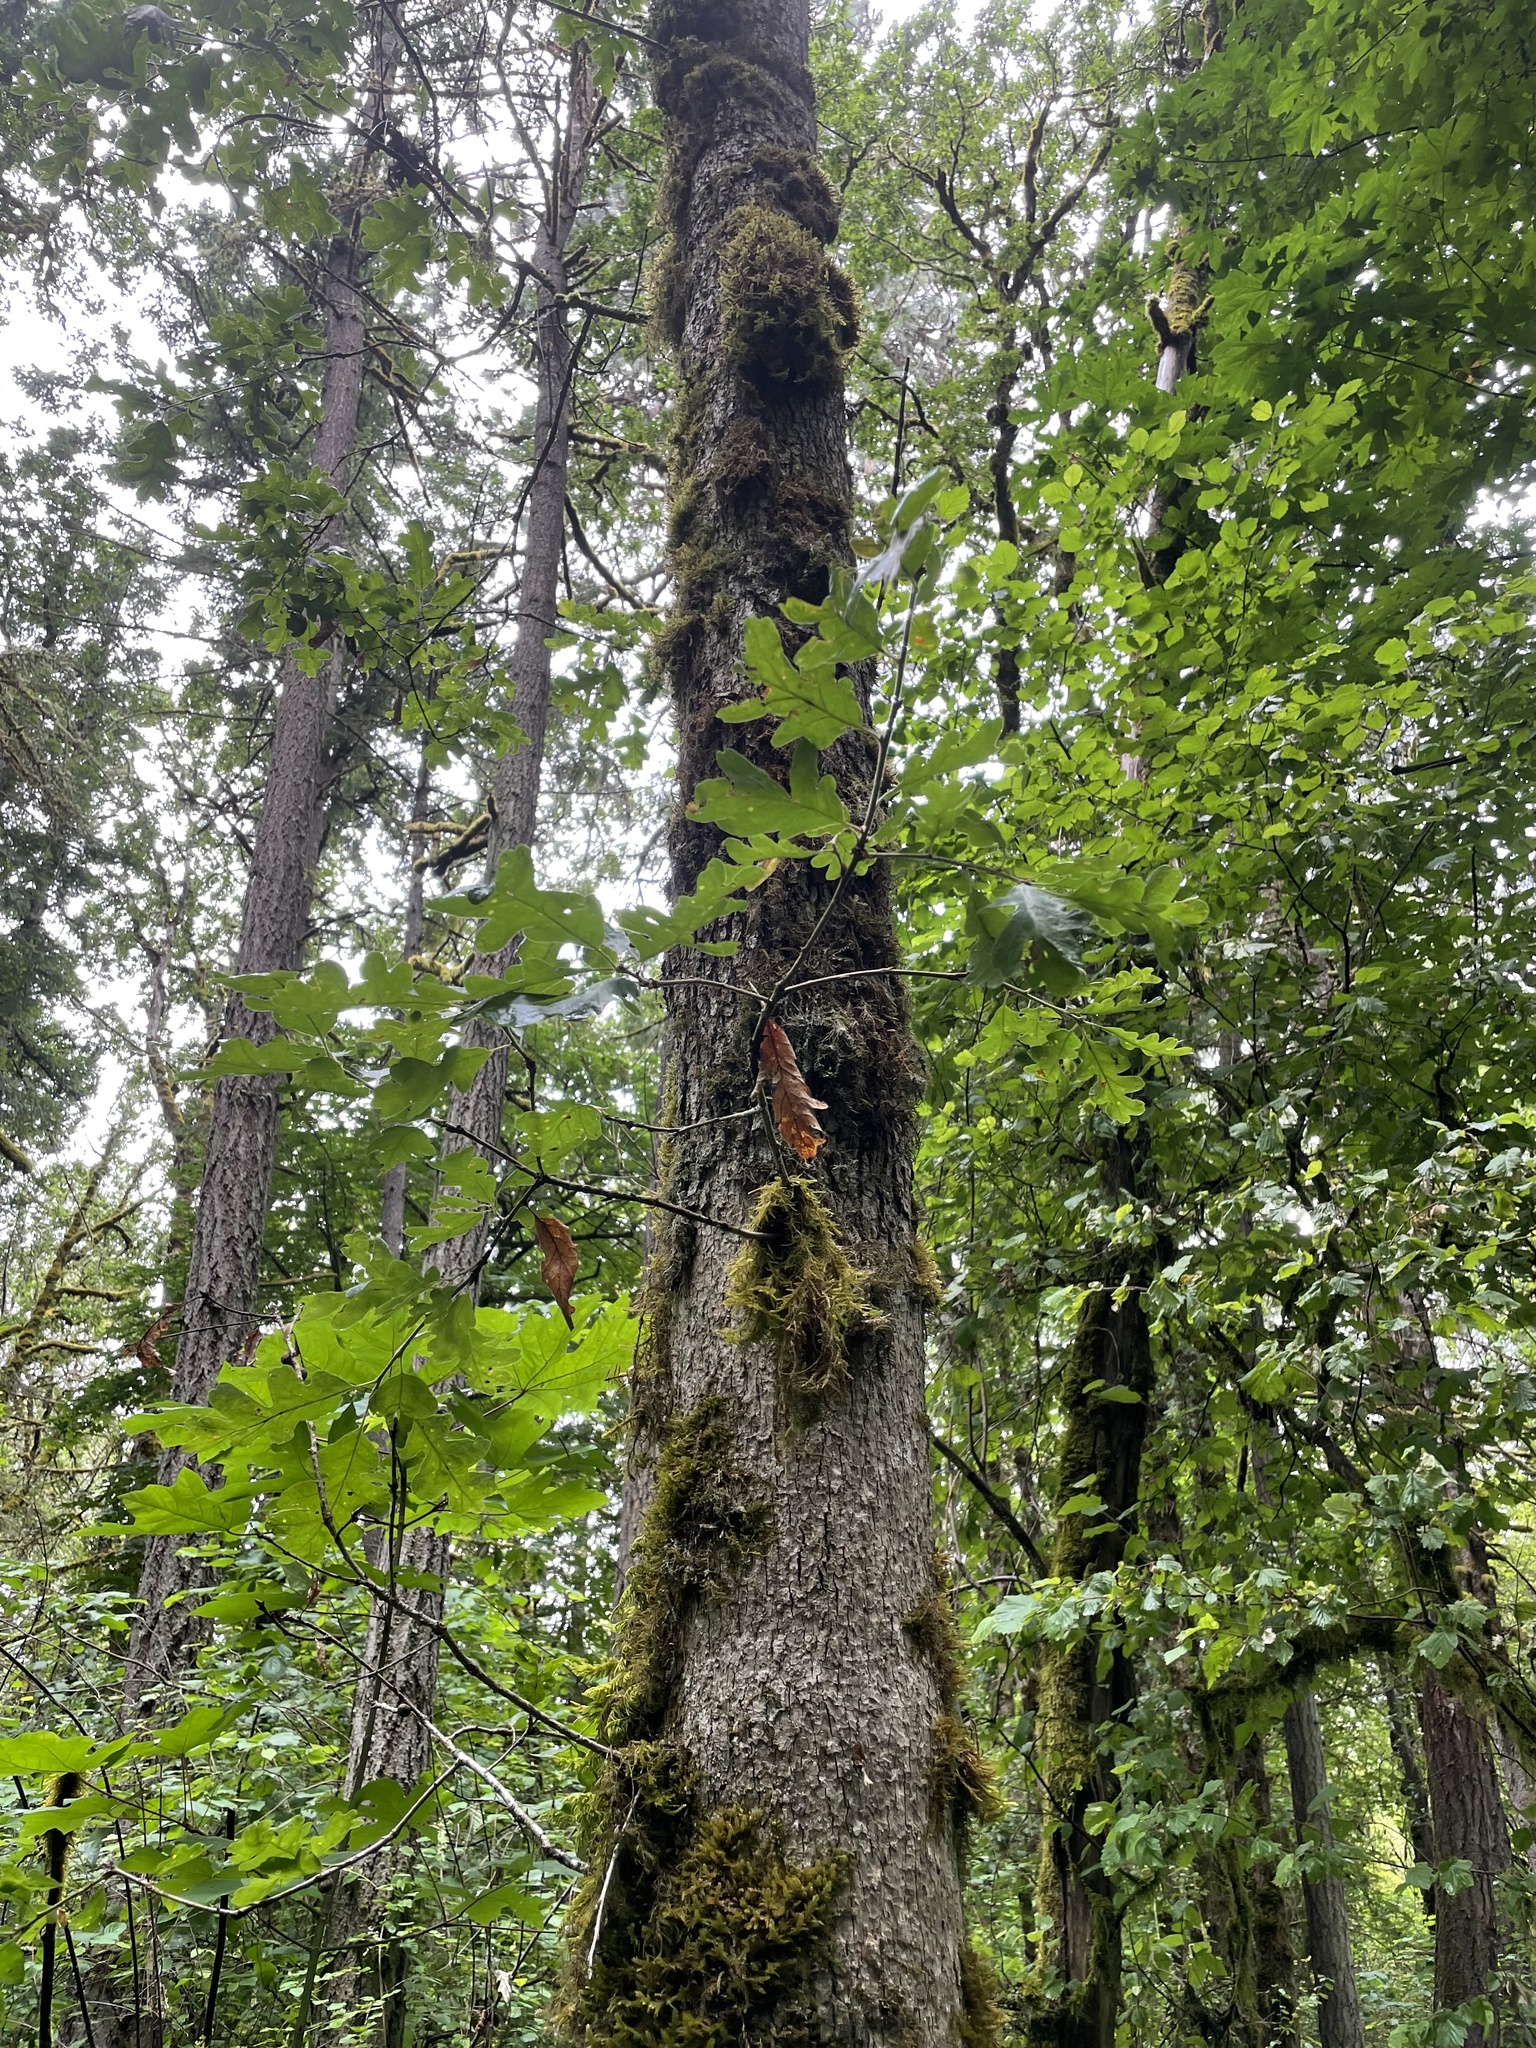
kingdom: Plantae
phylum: Tracheophyta
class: Magnoliopsida
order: Fagales
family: Fagaceae
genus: Quercus
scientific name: Quercus garryana
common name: Garry oak
